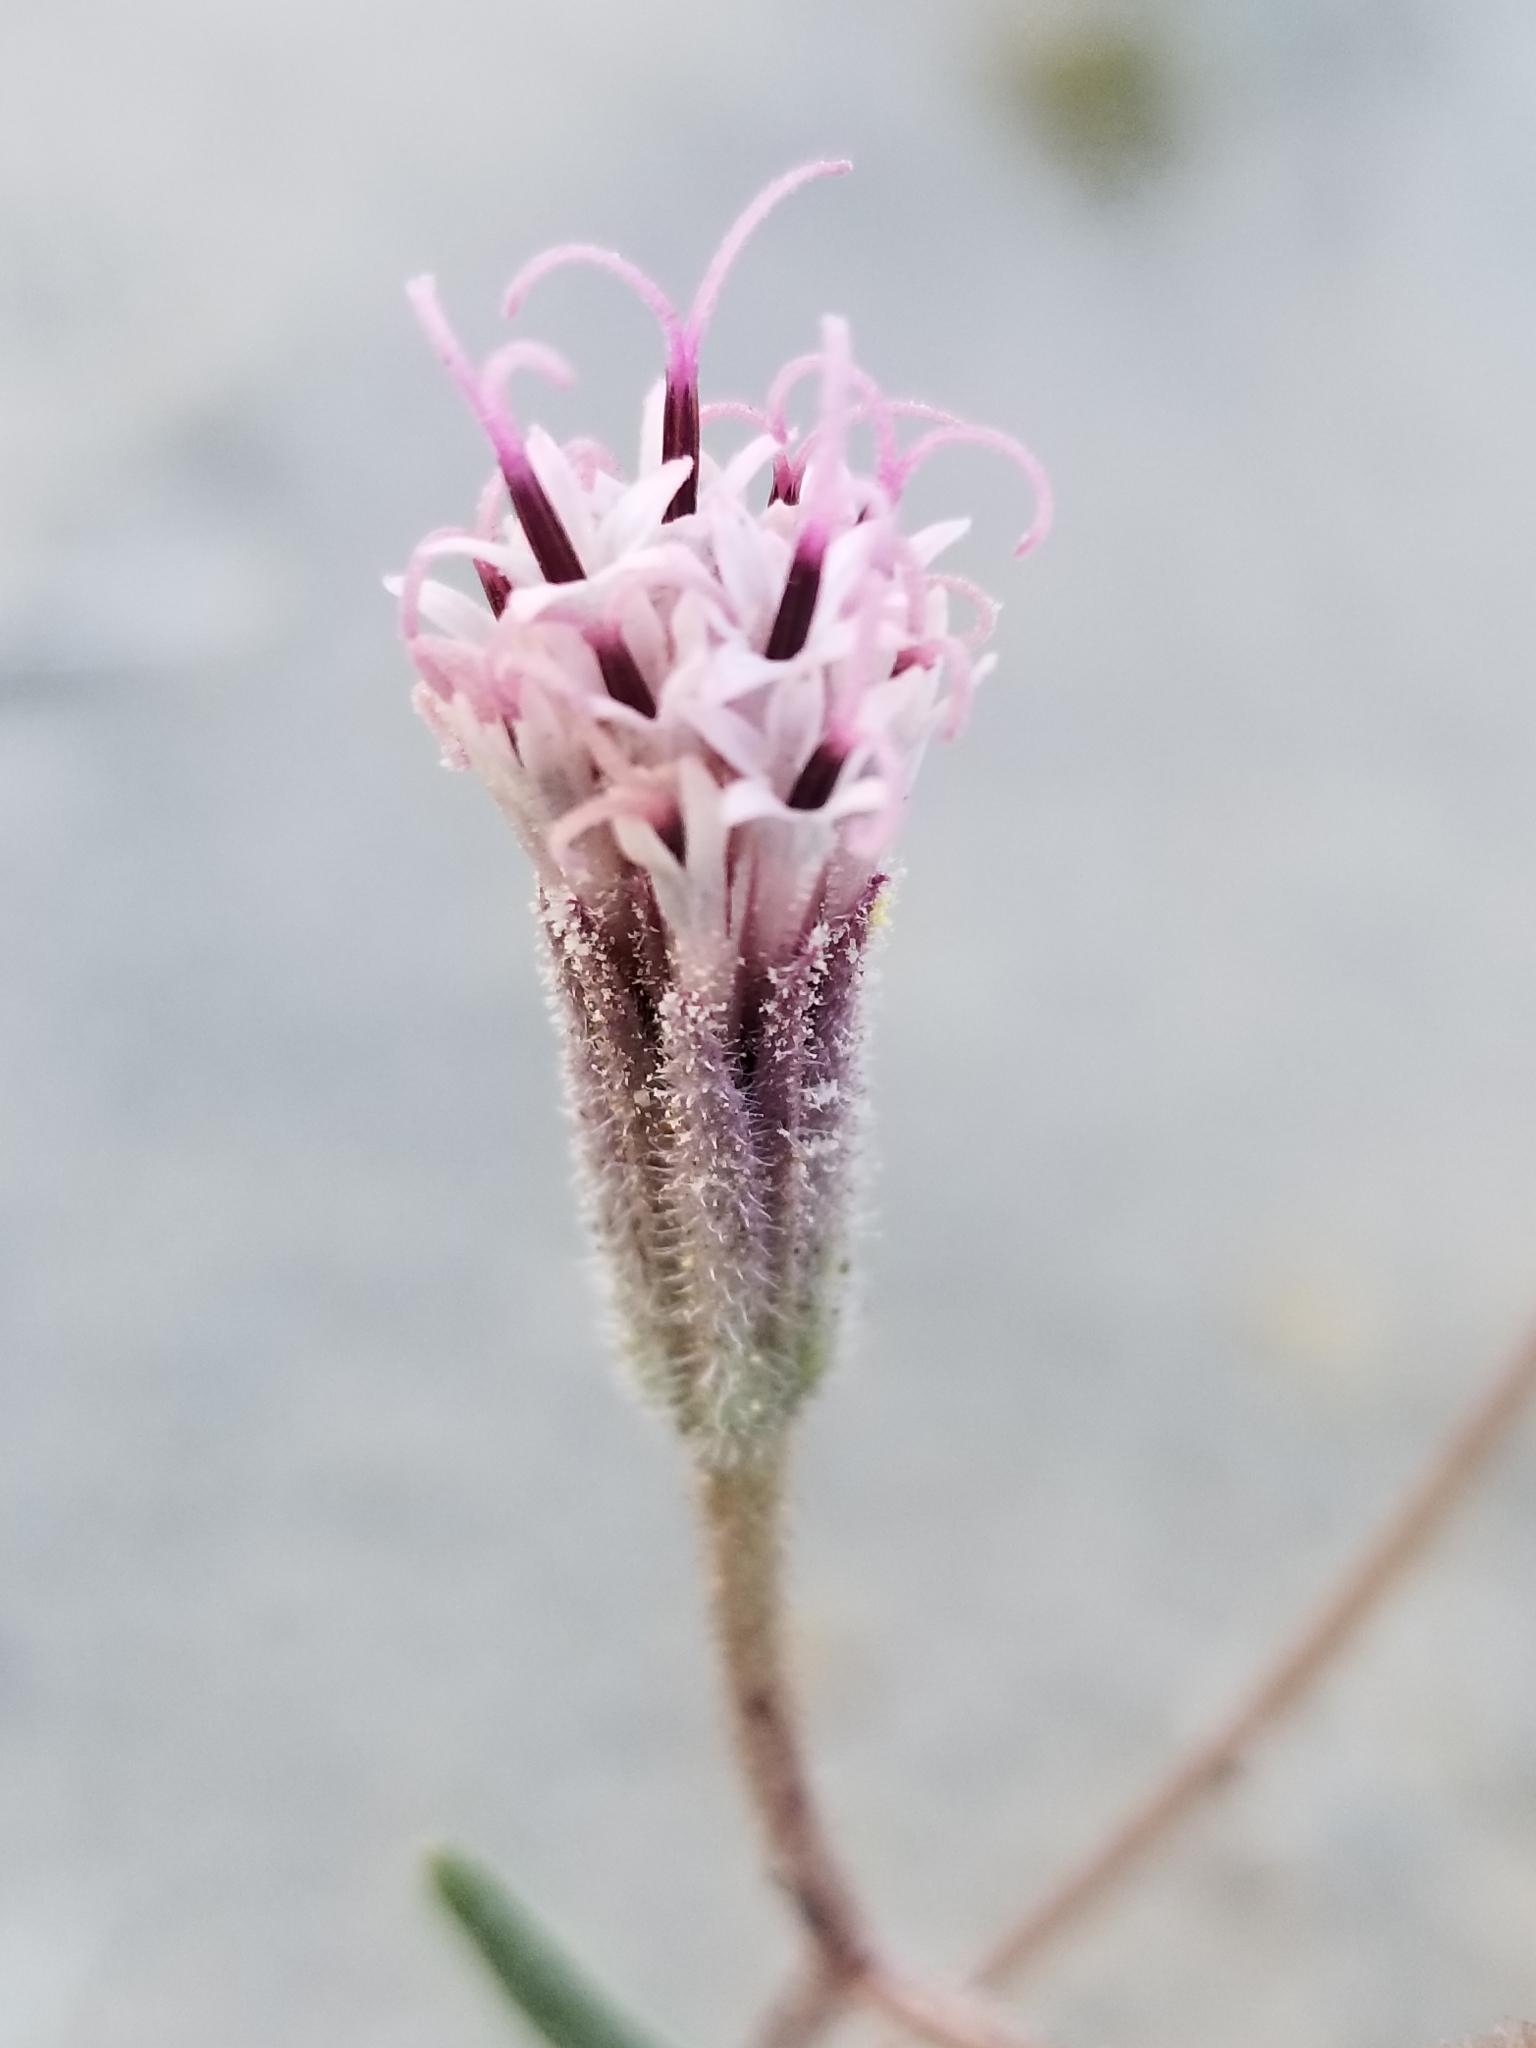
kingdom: Plantae
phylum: Tracheophyta
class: Magnoliopsida
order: Asterales
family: Asteraceae
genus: Palafoxia
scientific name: Palafoxia arida
